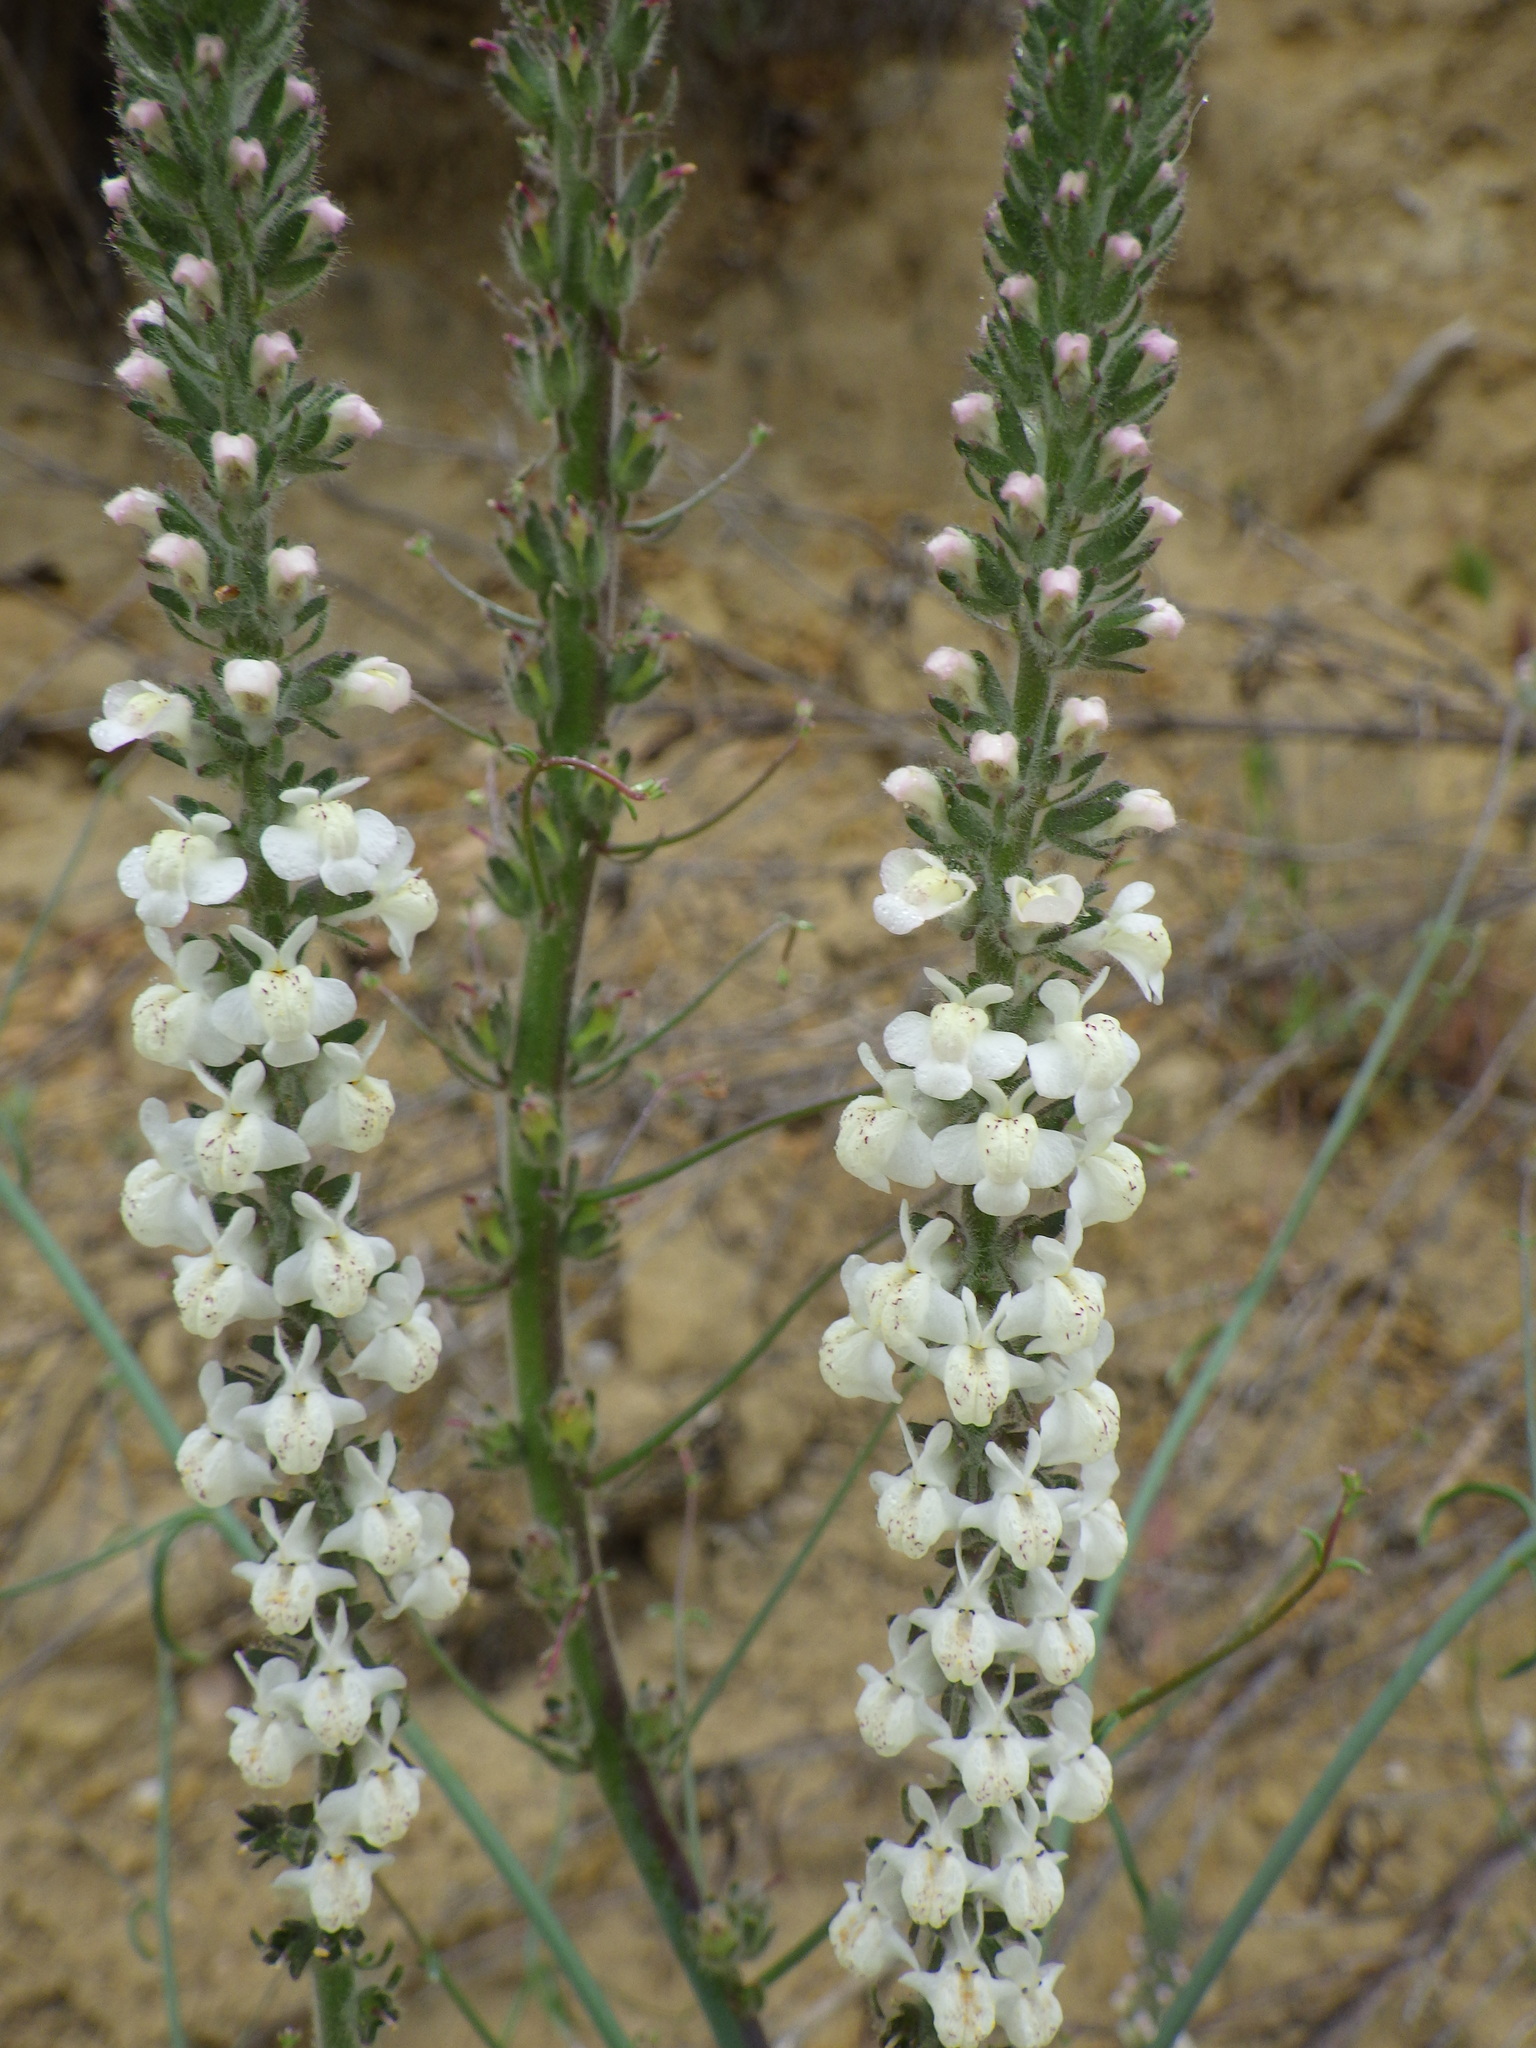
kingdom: Plantae
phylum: Tracheophyta
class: Magnoliopsida
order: Lamiales
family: Plantaginaceae
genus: Sairocarpus
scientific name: Sairocarpus coulterianus
